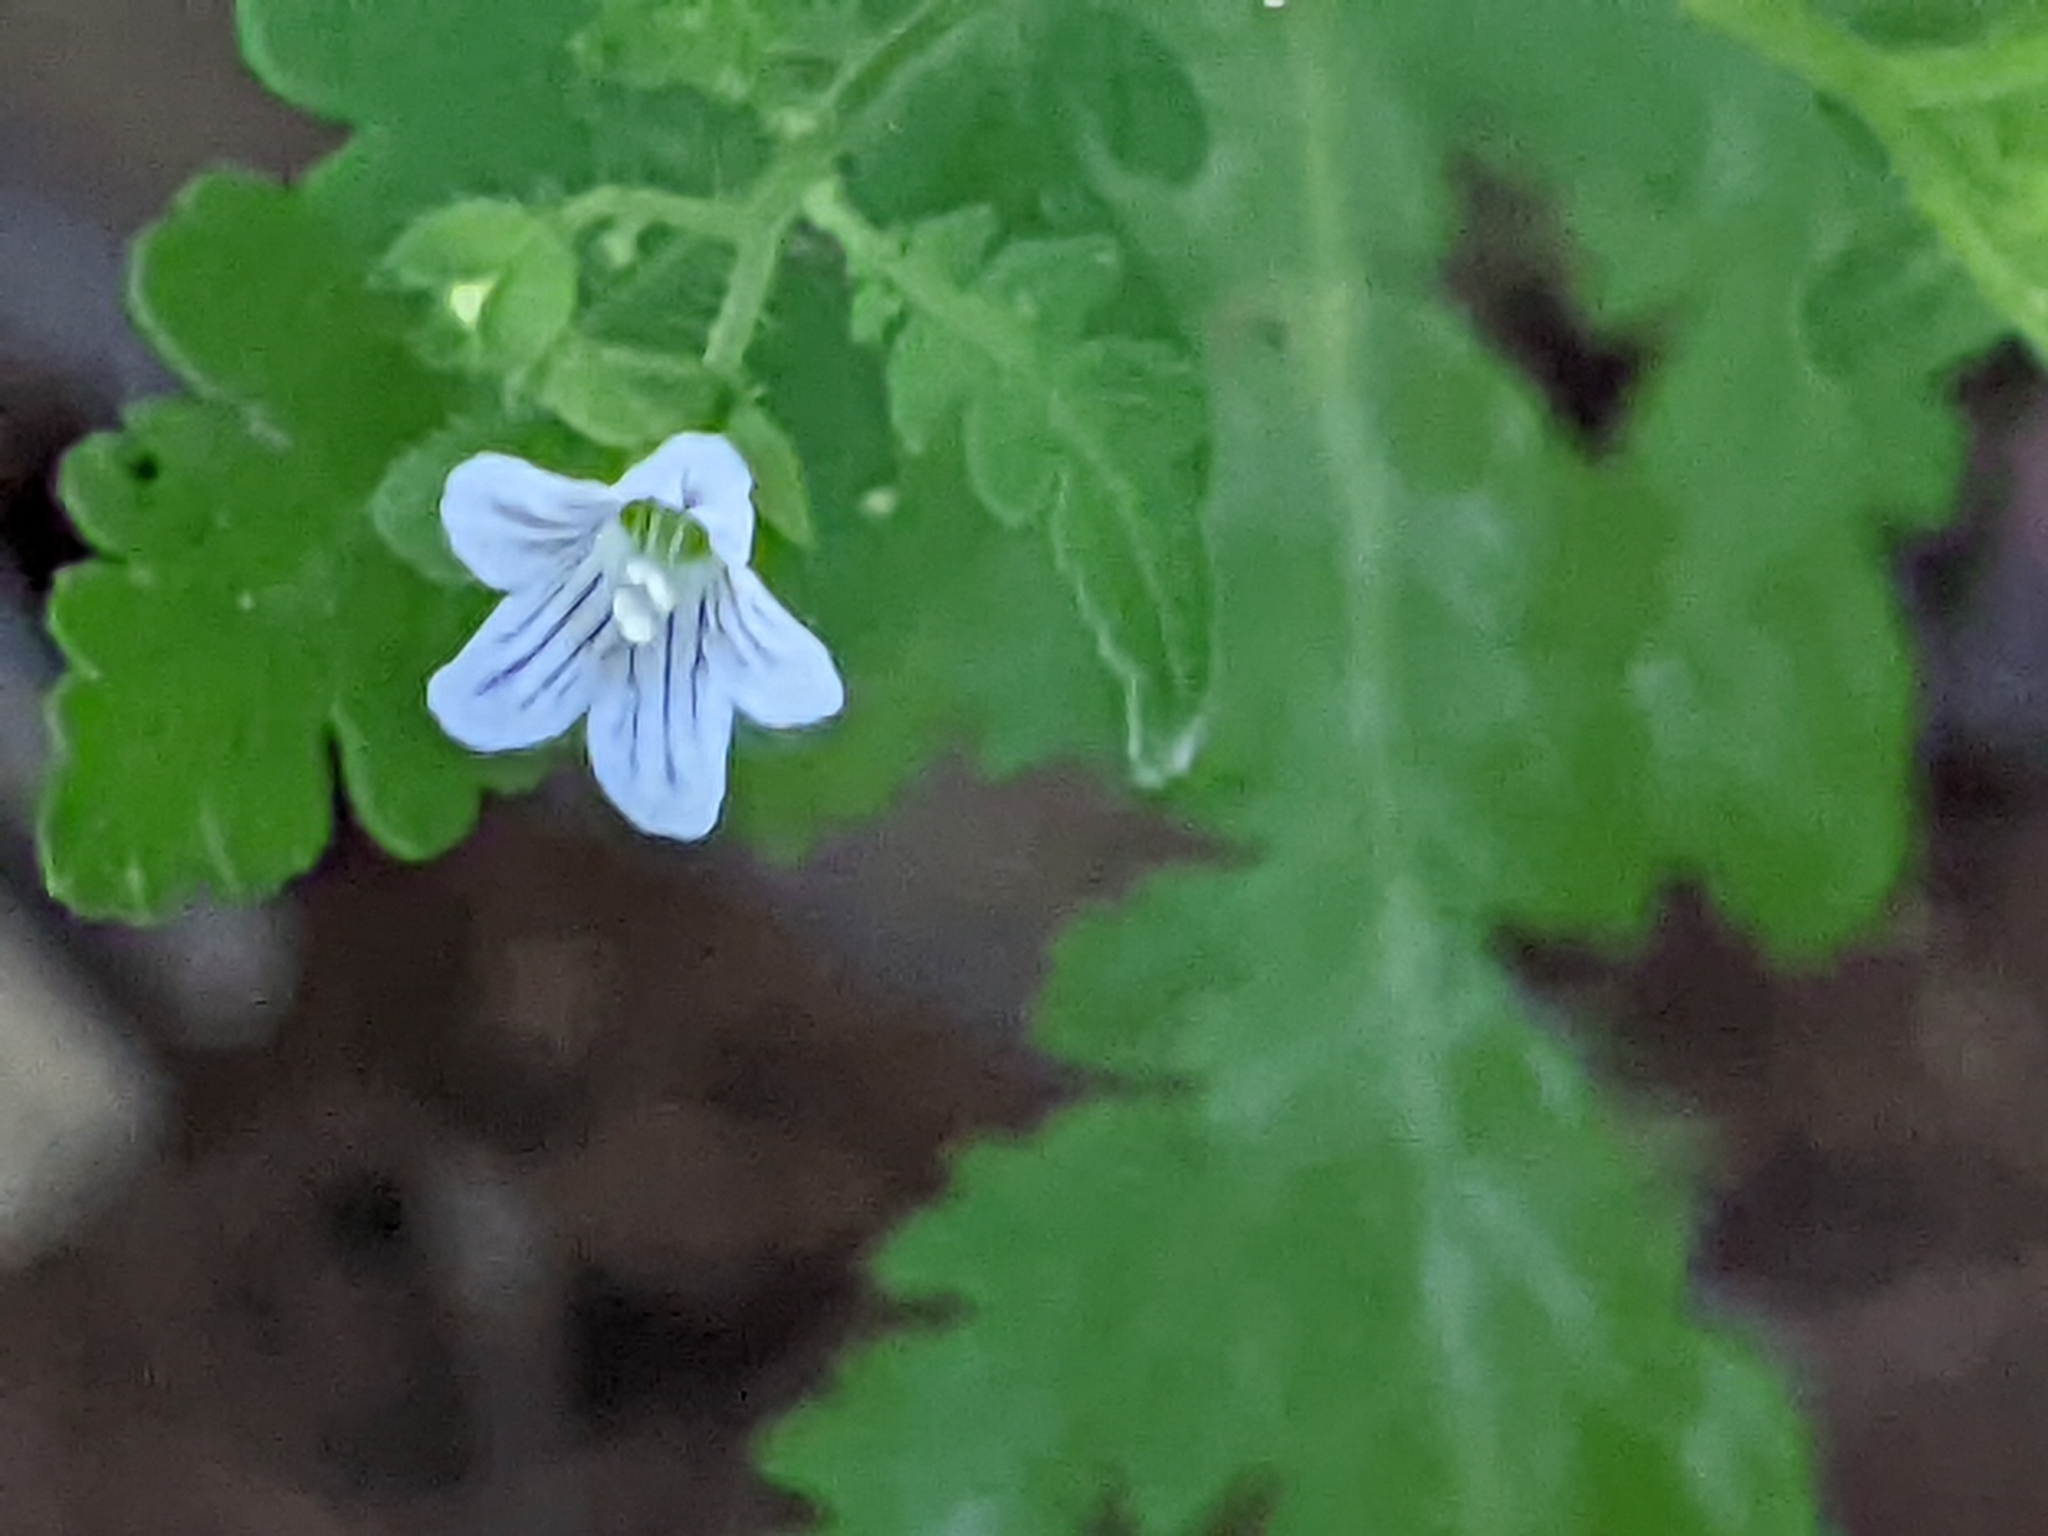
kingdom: Plantae
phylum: Tracheophyta
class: Magnoliopsida
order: Boraginales
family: Hydrophyllaceae
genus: Eucrypta
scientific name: Eucrypta chrysanthemifolia
